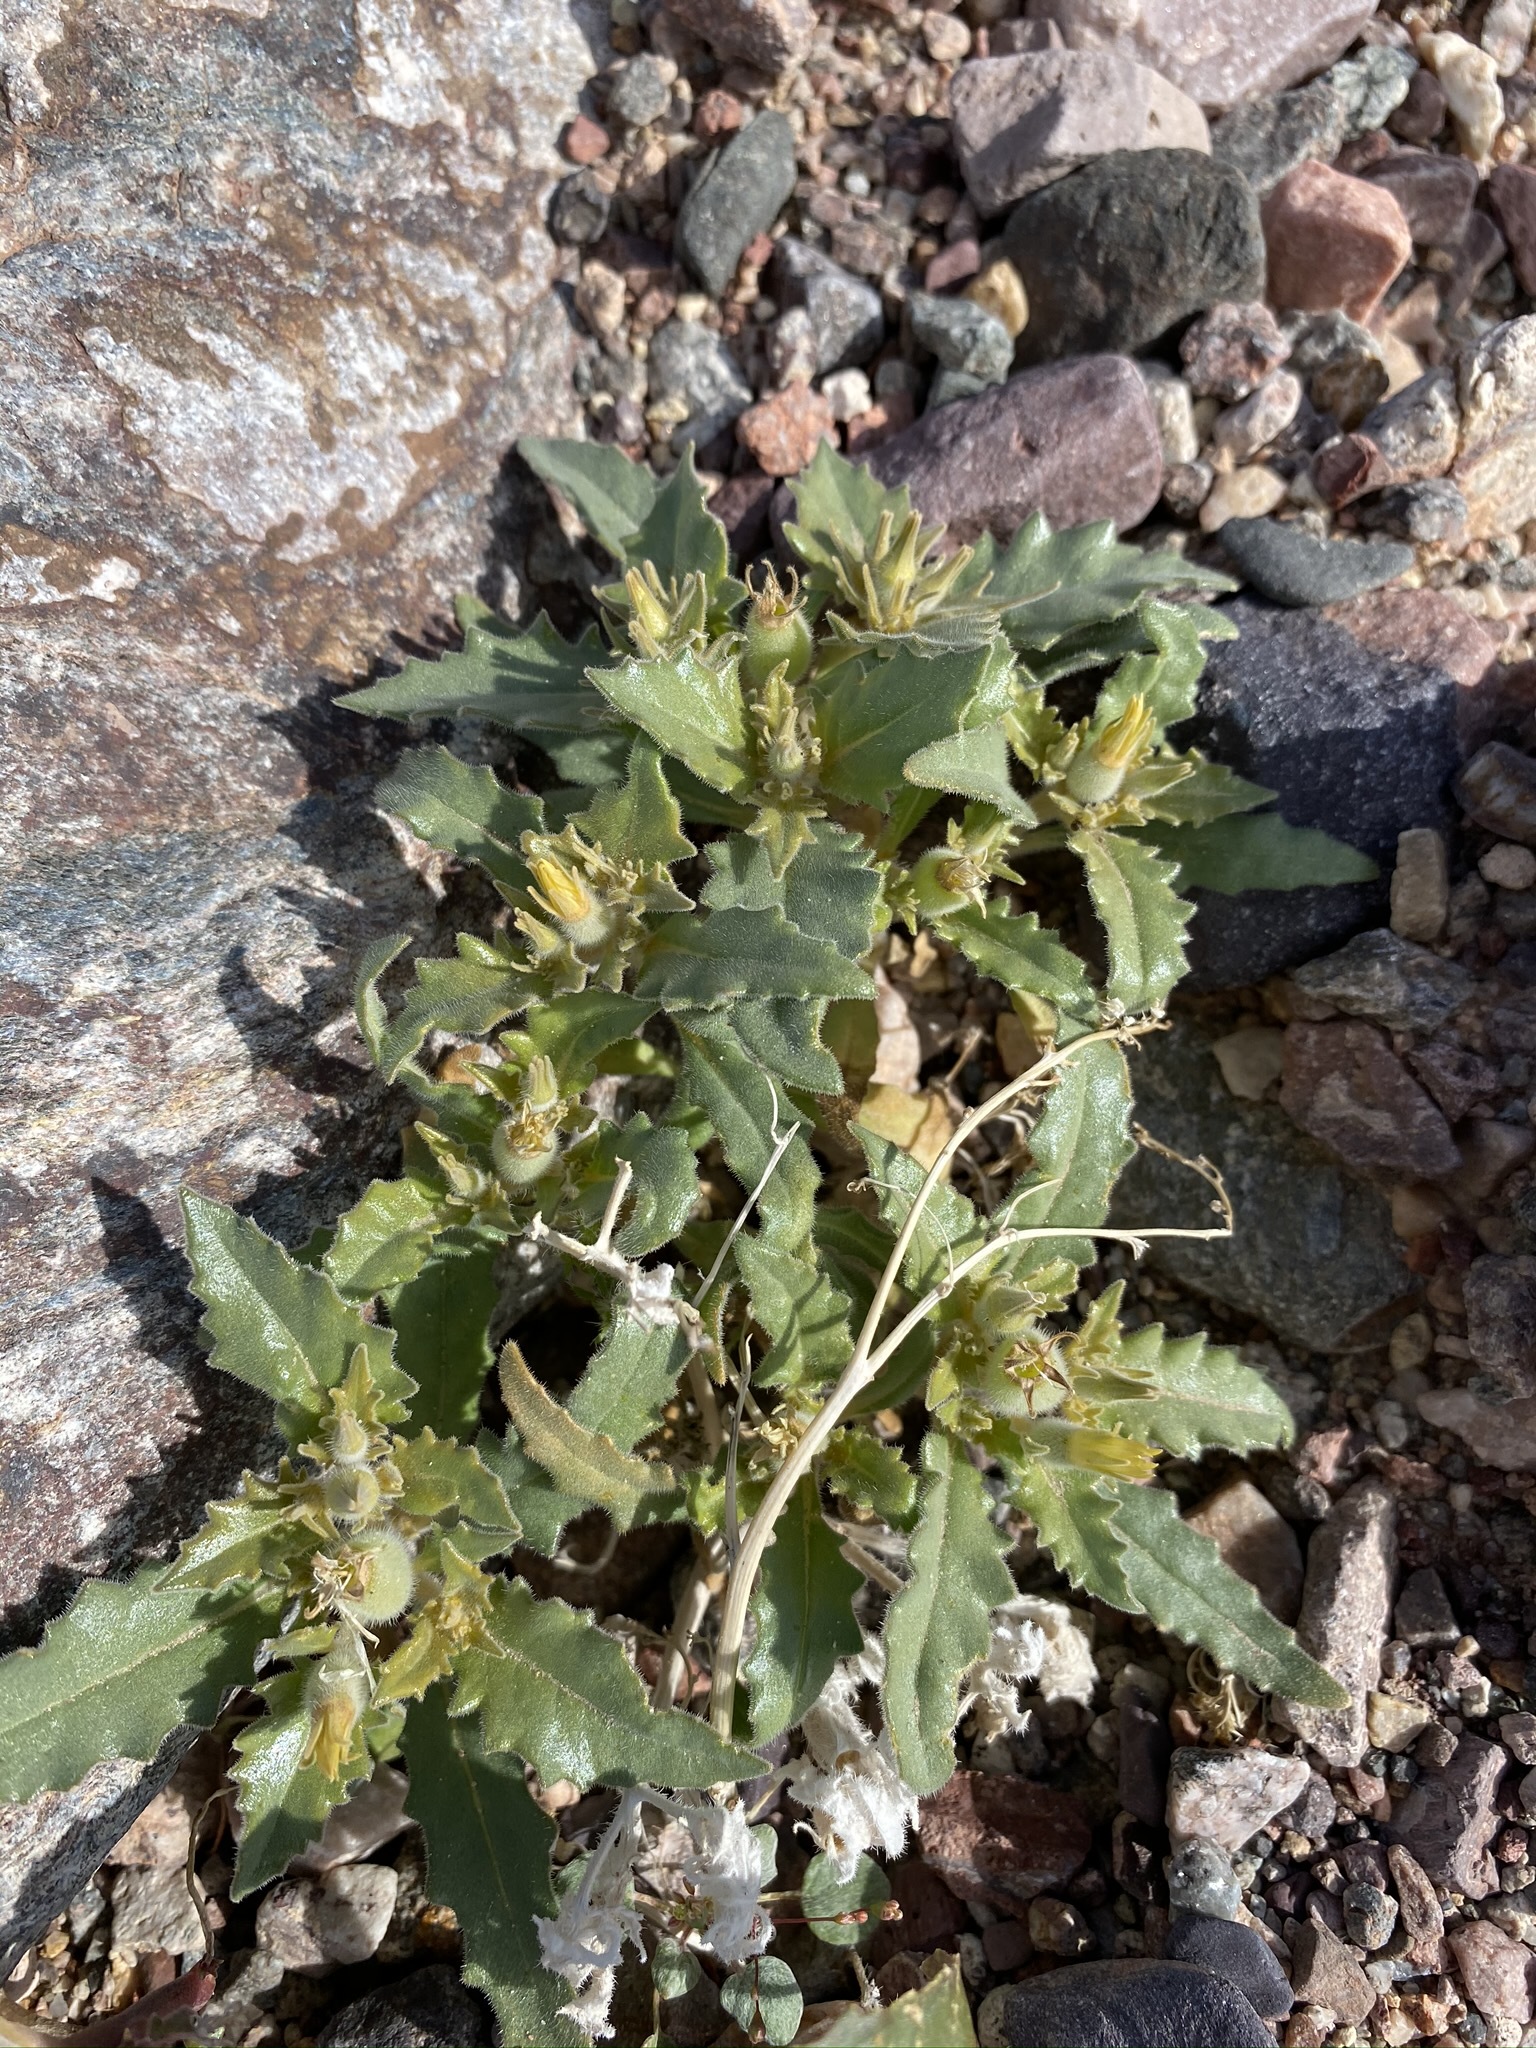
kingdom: Plantae
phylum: Tracheophyta
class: Magnoliopsida
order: Cornales
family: Loasaceae
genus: Mentzelia
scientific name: Mentzelia reflexa
